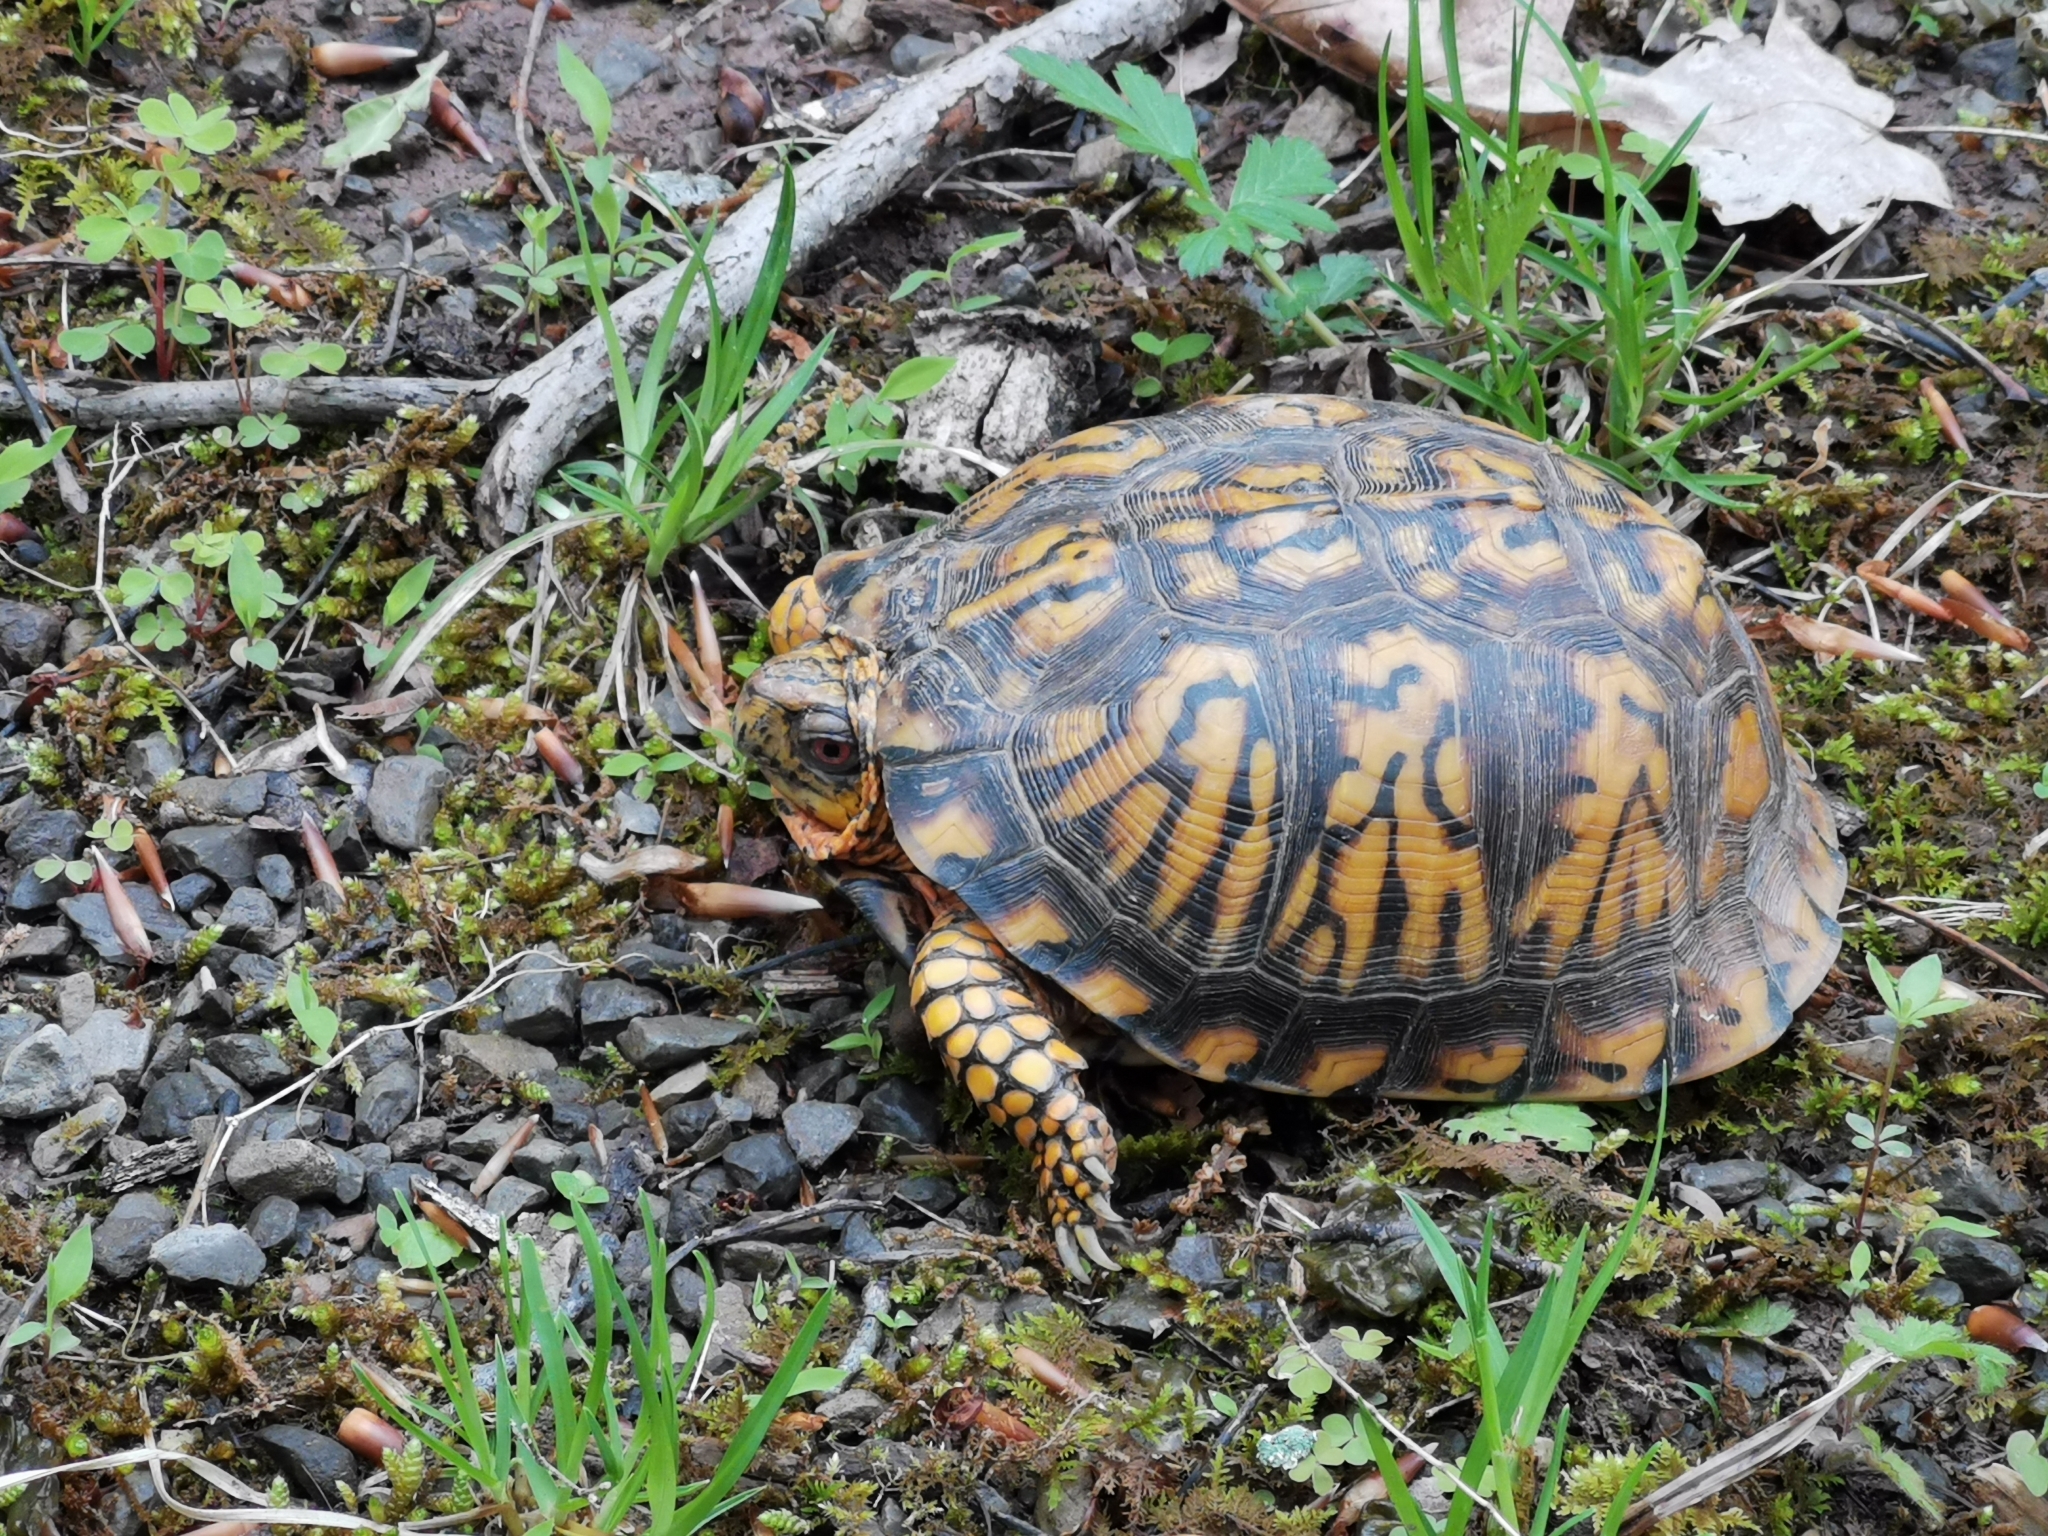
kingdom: Animalia
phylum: Chordata
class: Testudines
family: Emydidae
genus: Terrapene
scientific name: Terrapene carolina
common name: Common box turtle
